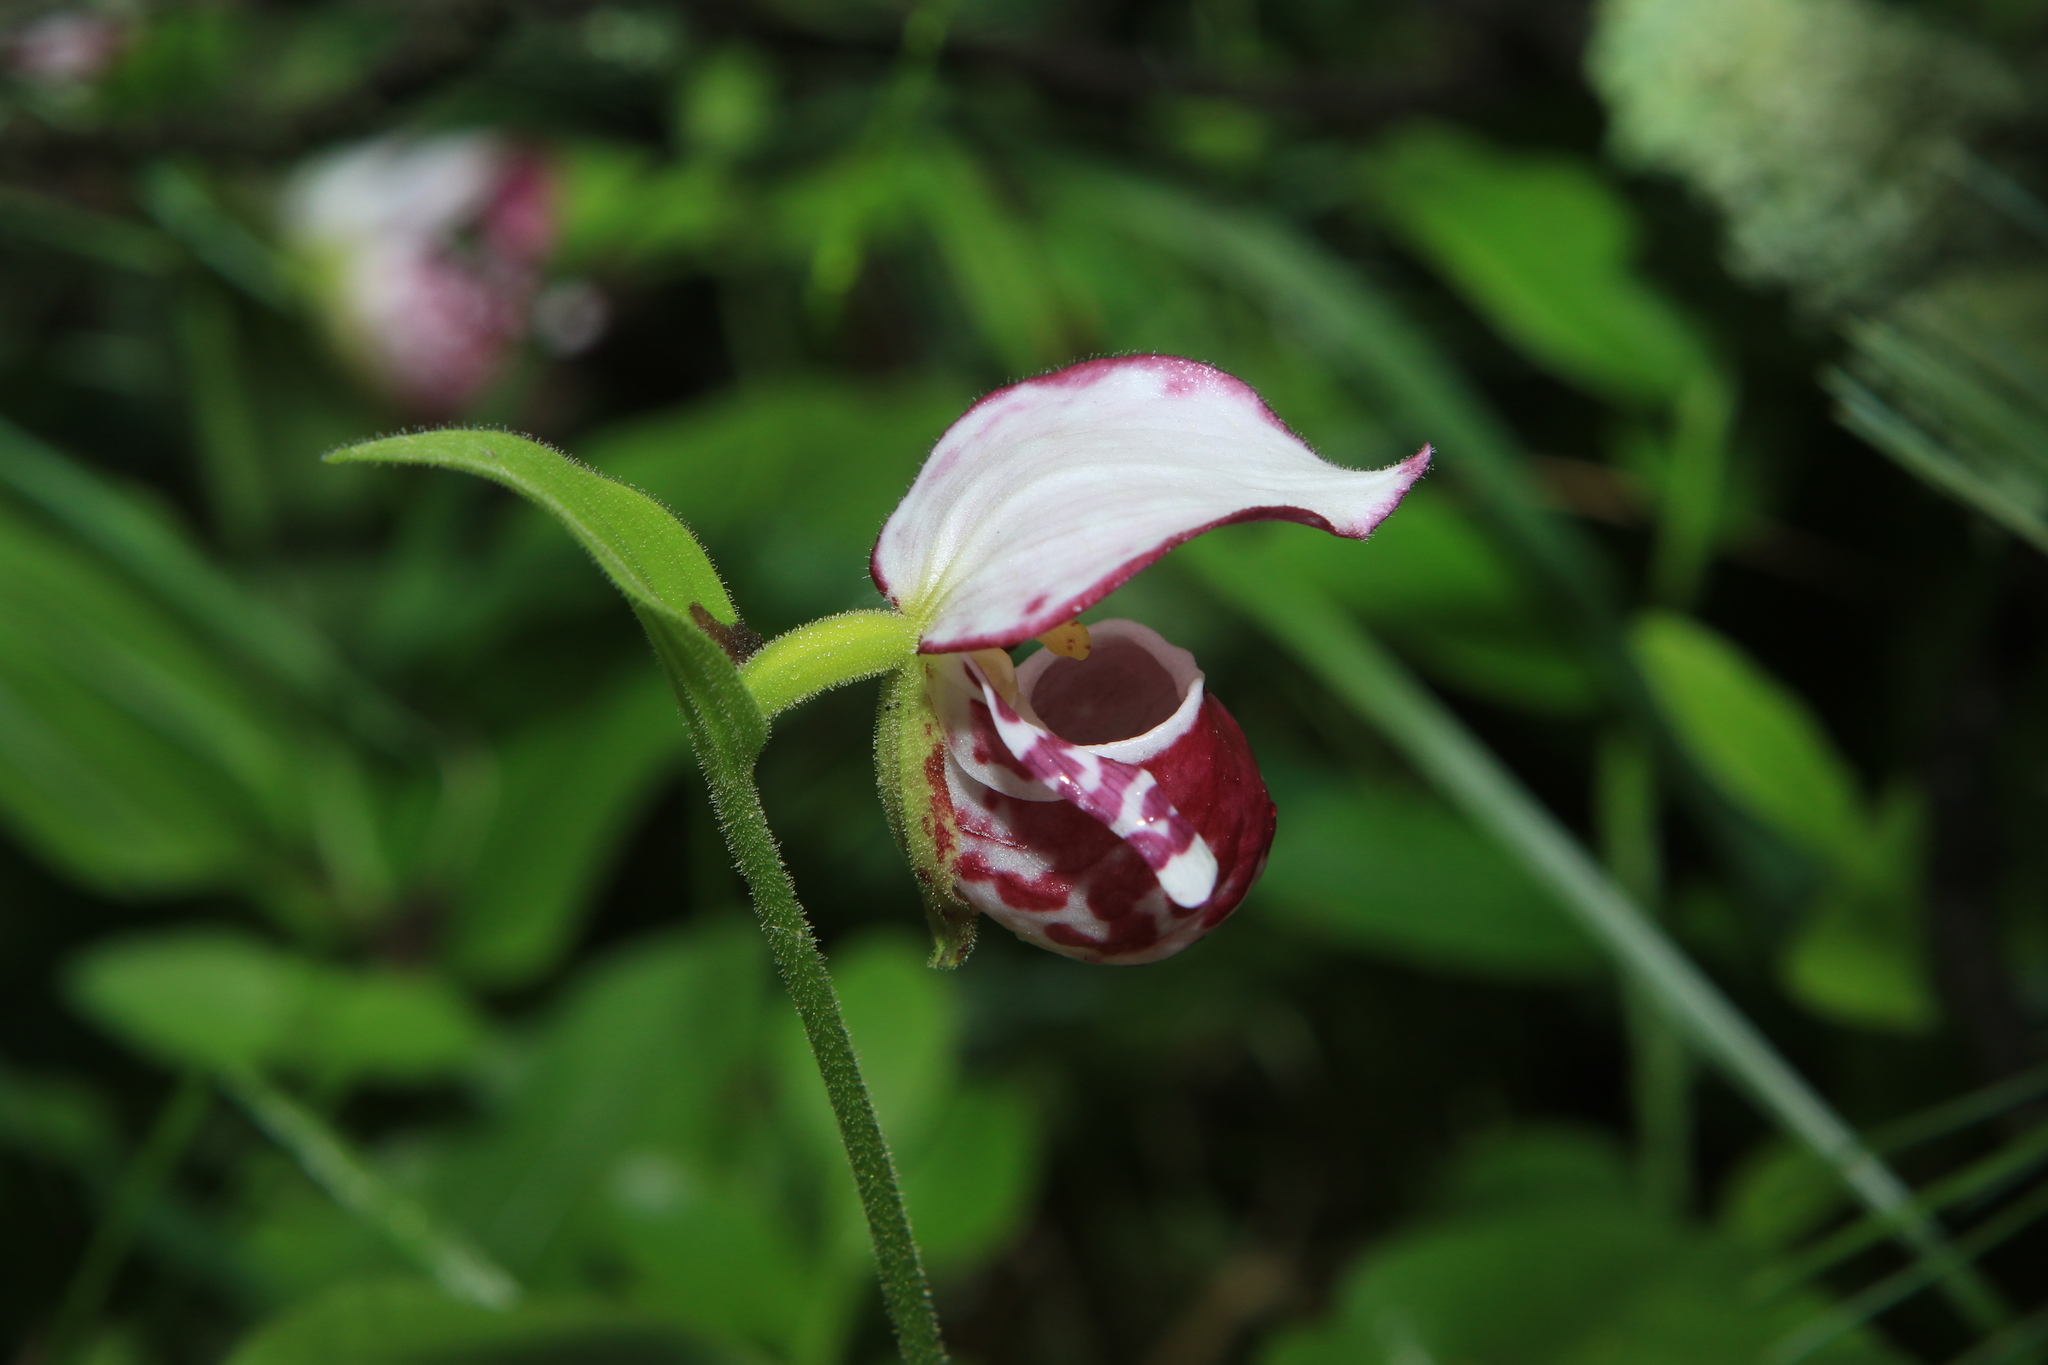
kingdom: Plantae
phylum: Tracheophyta
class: Liliopsida
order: Asparagales
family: Orchidaceae
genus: Cypripedium
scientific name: Cypripedium guttatum
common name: Pink lady slipper
